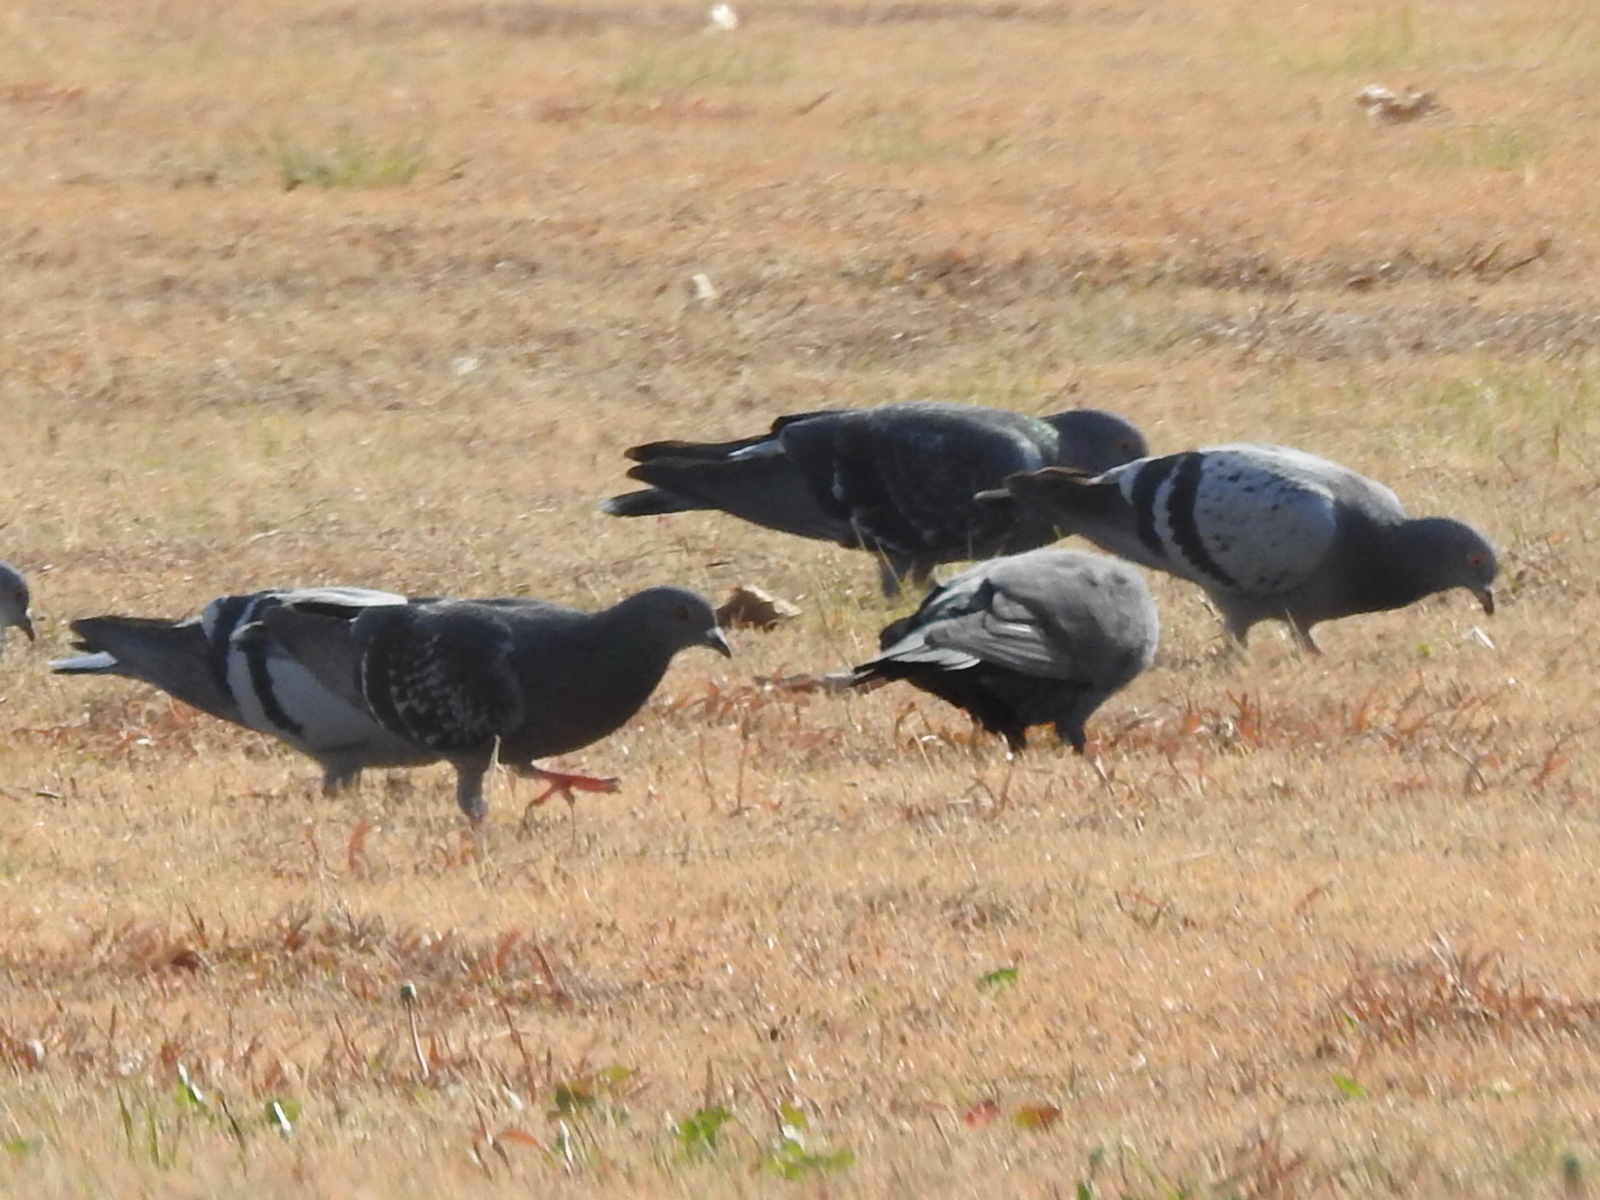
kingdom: Animalia
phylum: Chordata
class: Aves
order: Columbiformes
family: Columbidae
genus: Columba
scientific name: Columba livia
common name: Rock pigeon
